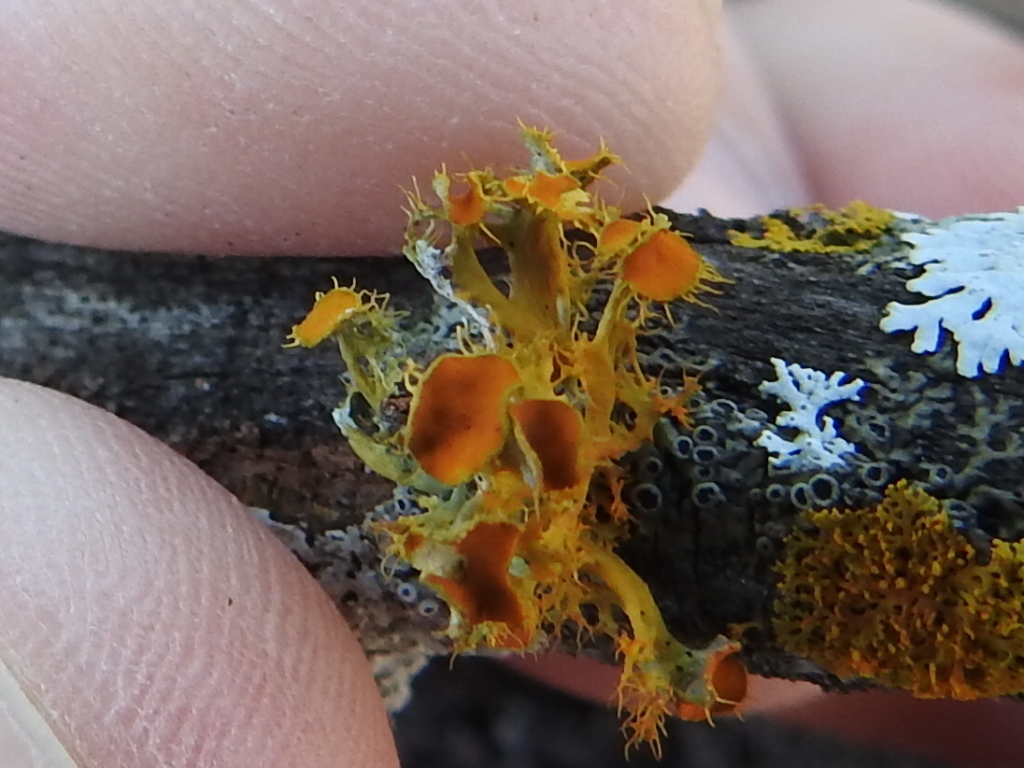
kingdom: Fungi
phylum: Ascomycota
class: Lecanoromycetes
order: Teloschistales
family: Teloschistaceae
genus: Niorma
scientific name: Niorma chrysophthalma
